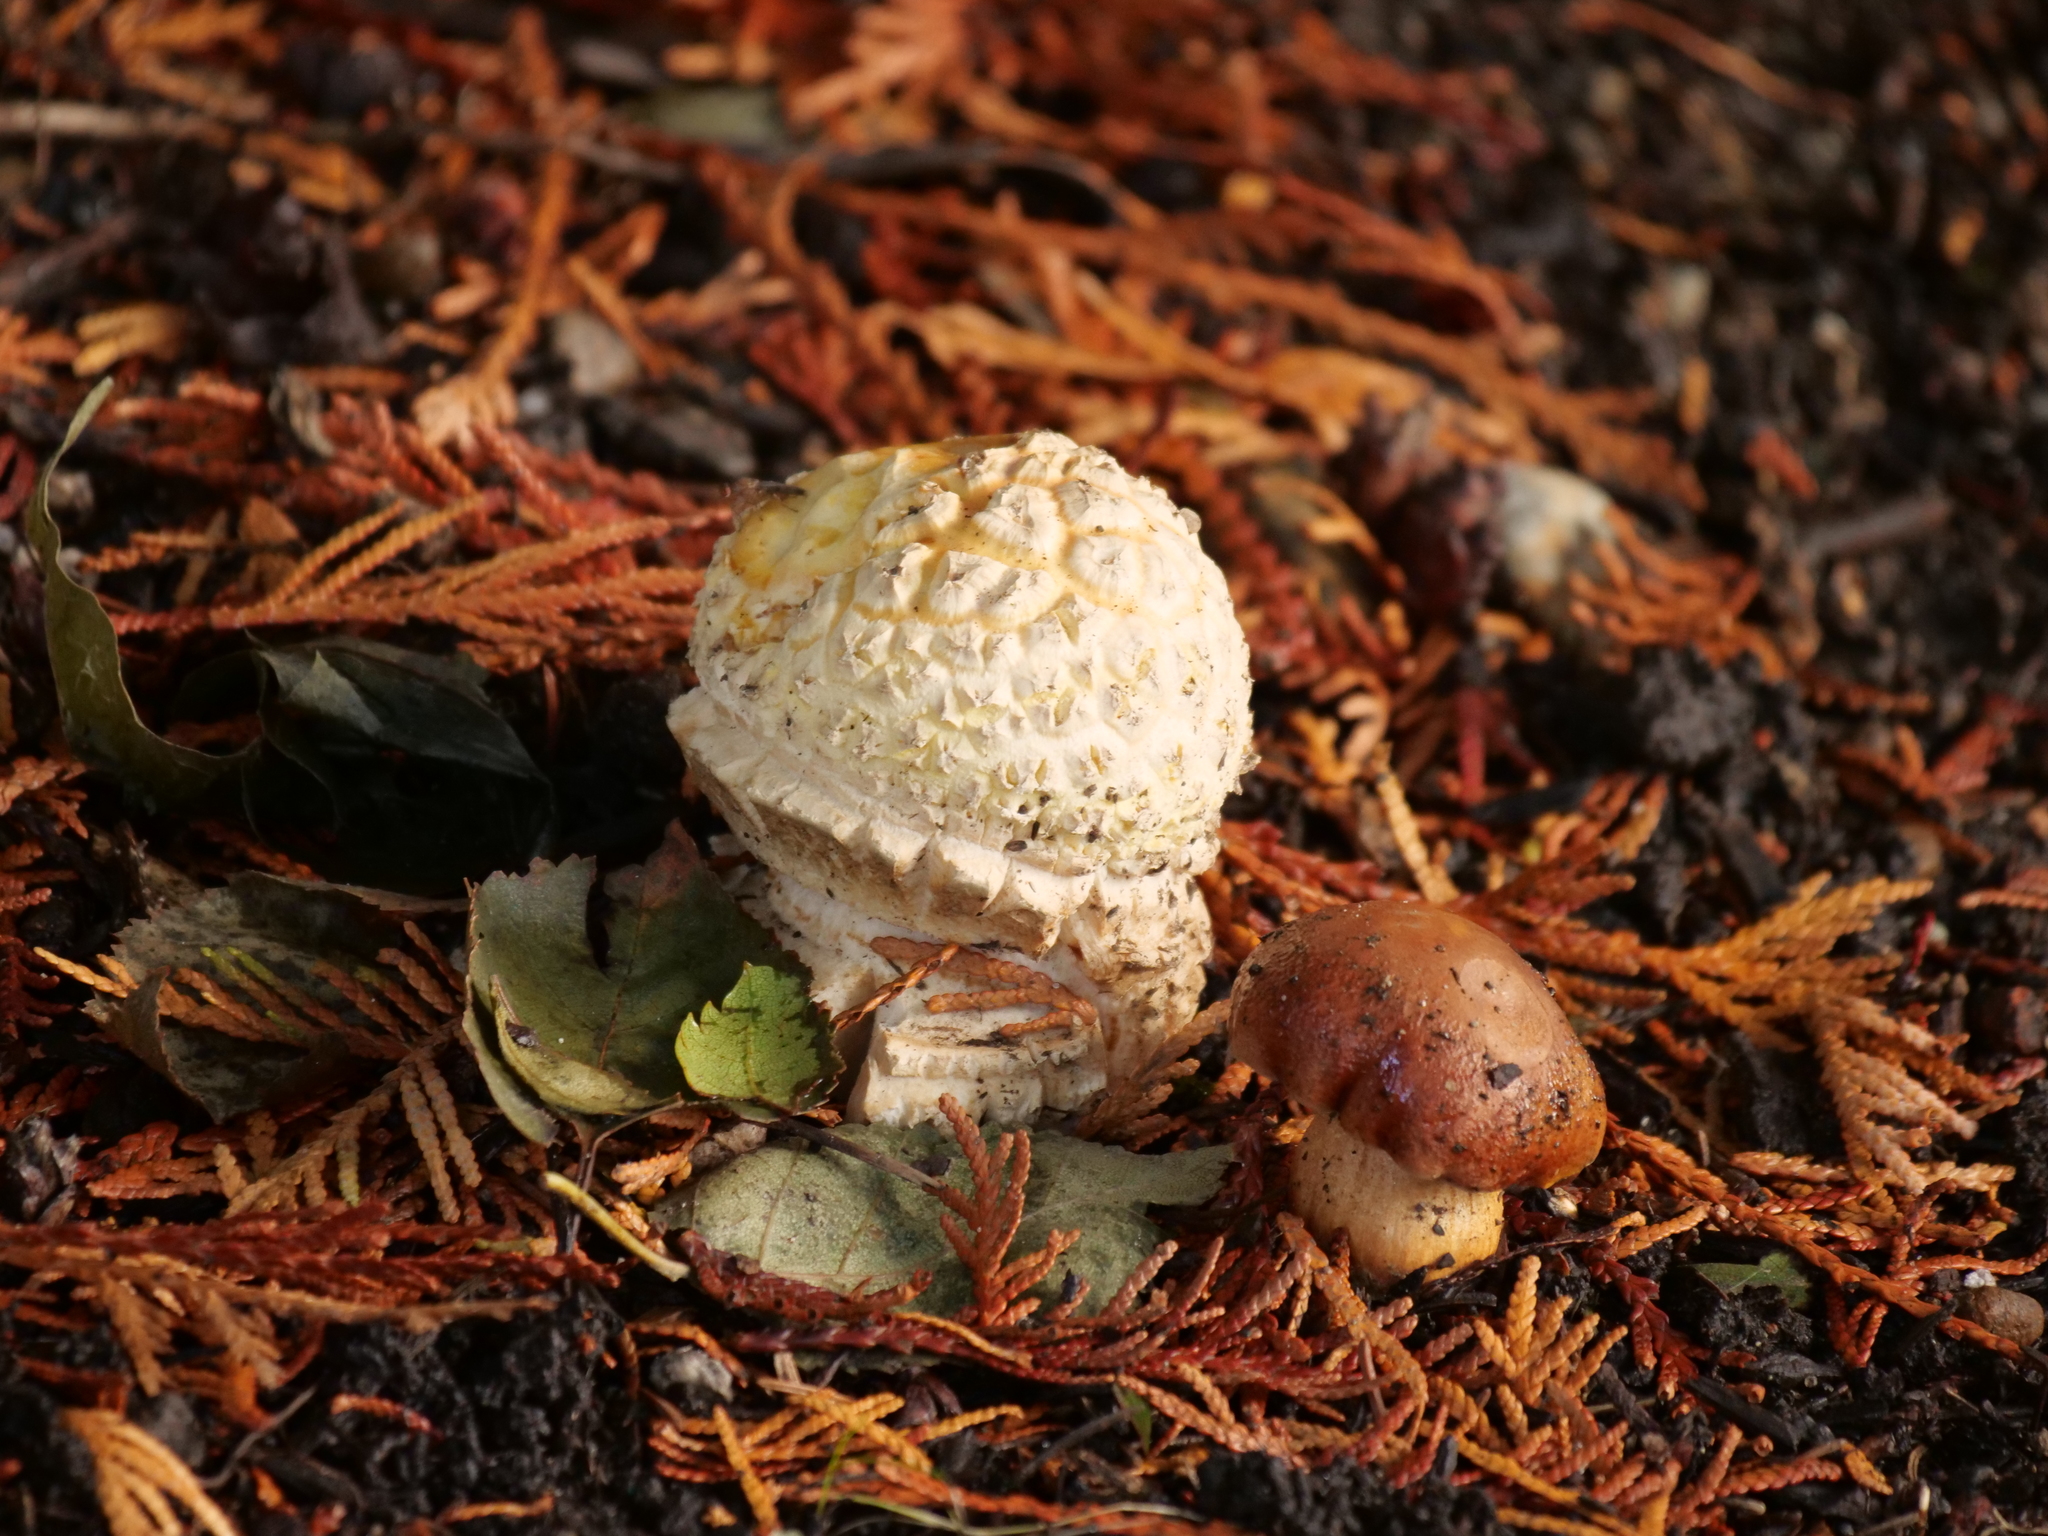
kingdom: Fungi
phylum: Basidiomycota
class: Agaricomycetes
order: Agaricales
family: Amanitaceae
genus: Amanita
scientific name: Amanita muscaria
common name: Fly agaric
